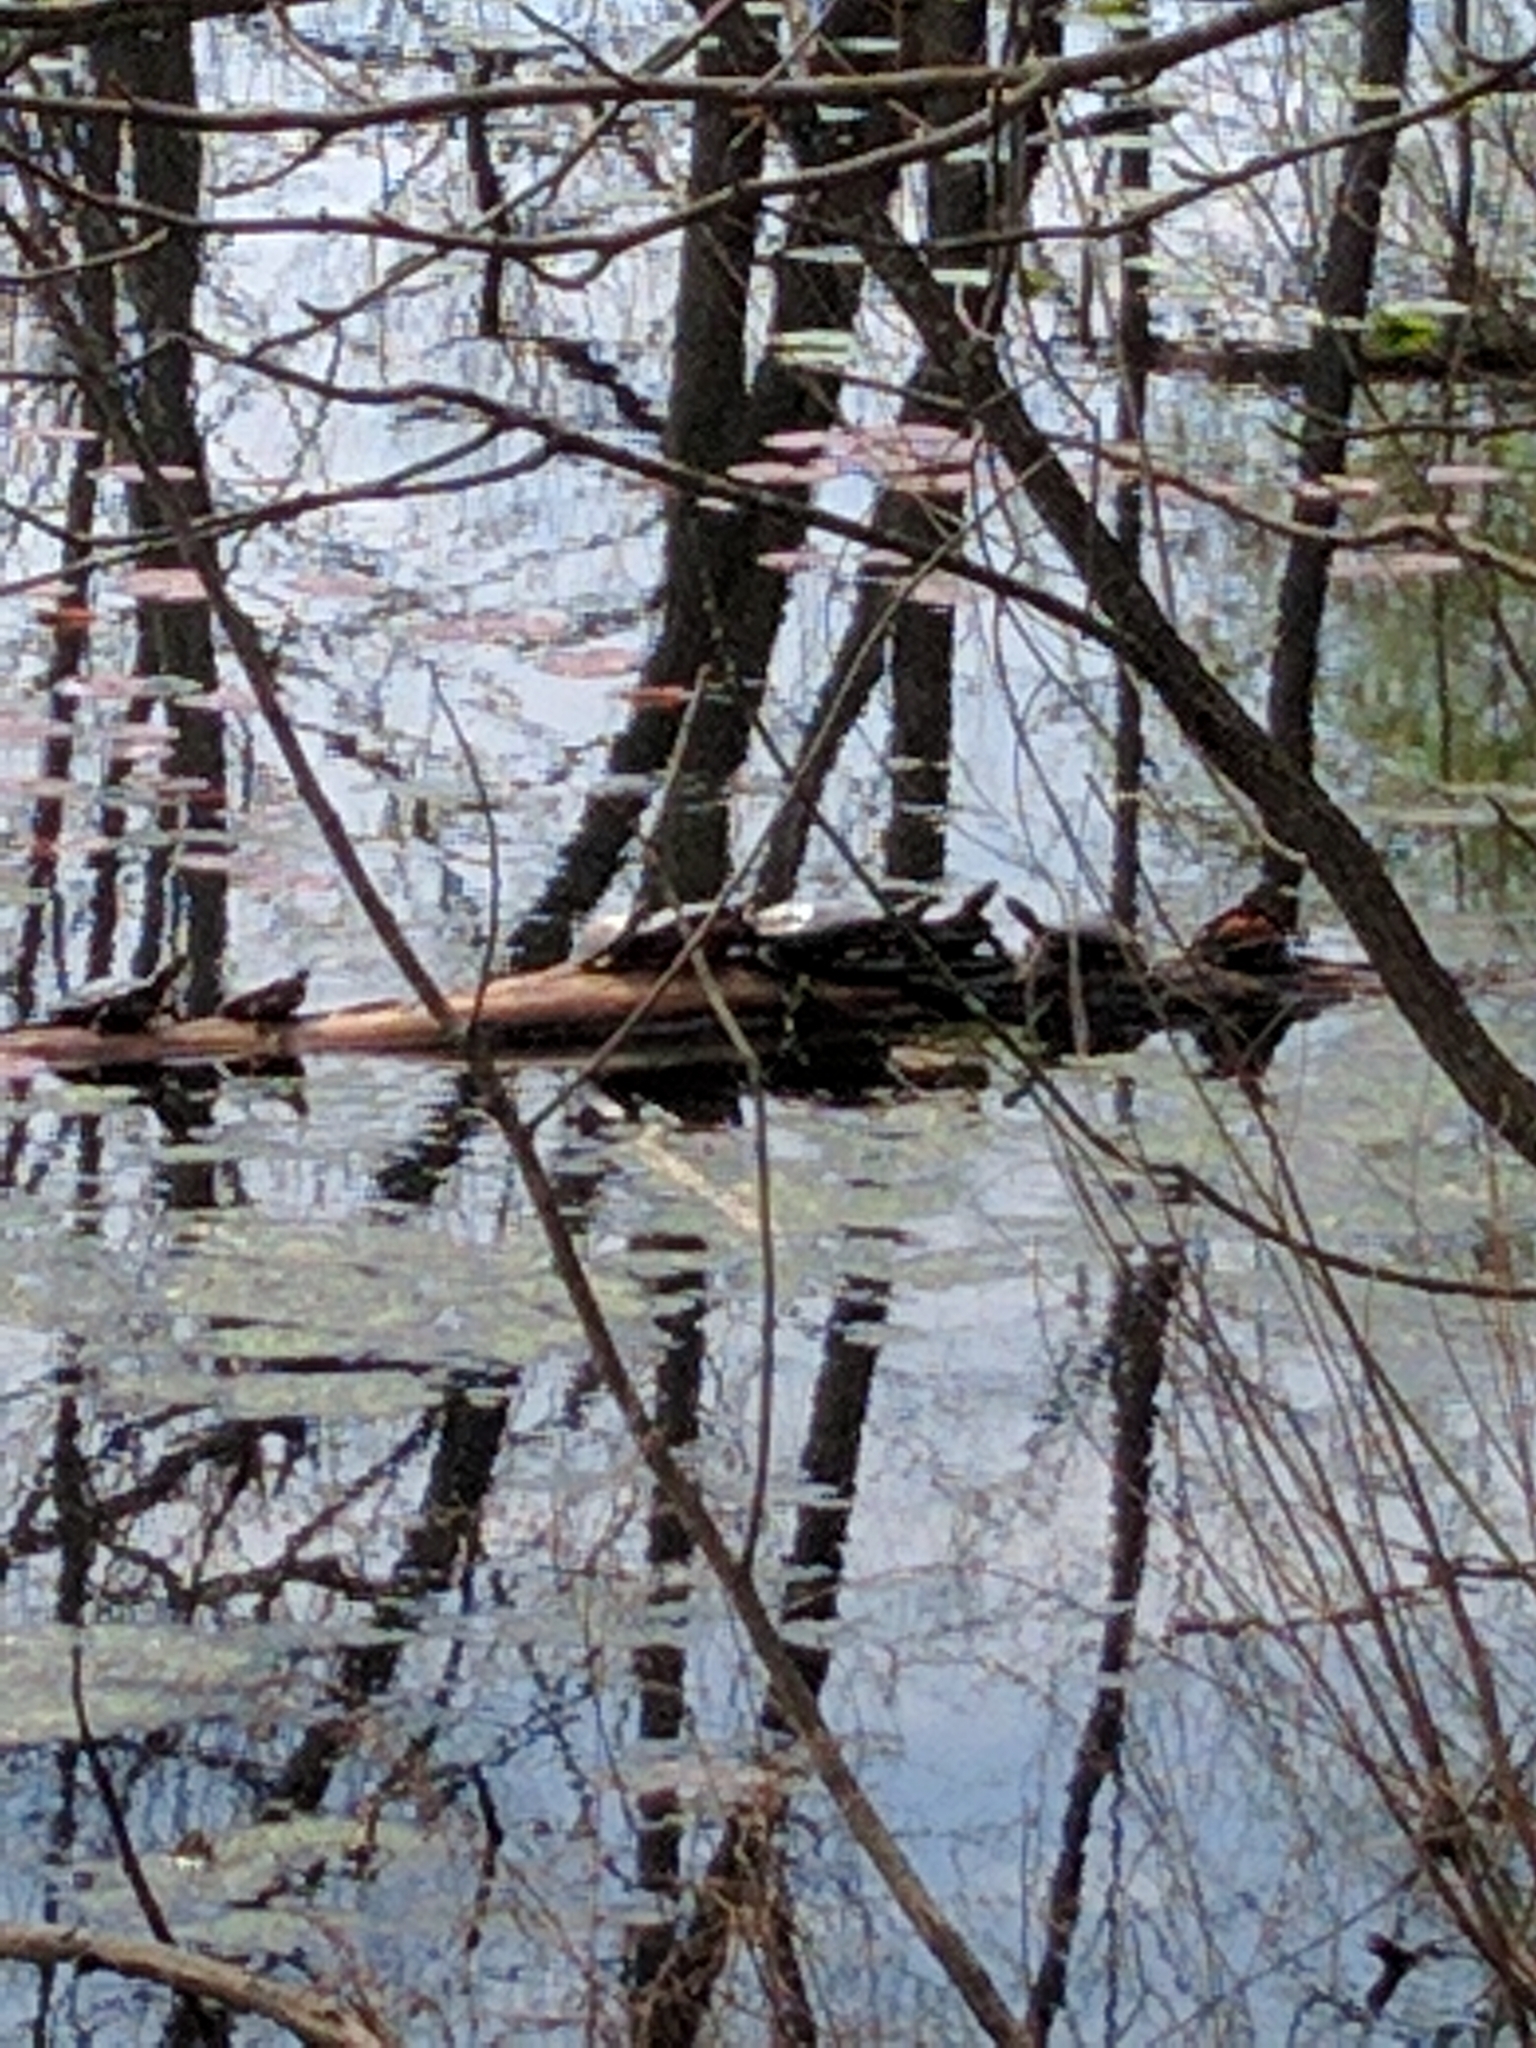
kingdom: Animalia
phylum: Chordata
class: Testudines
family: Emydidae
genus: Chrysemys
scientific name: Chrysemys picta
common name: Painted turtle
